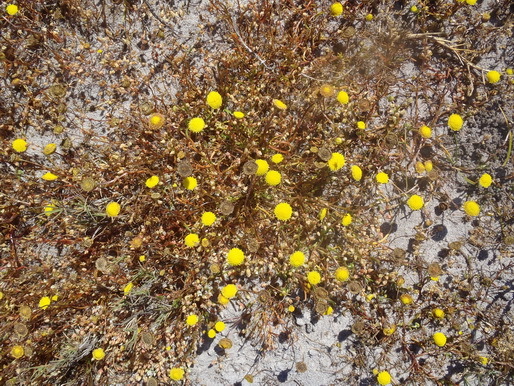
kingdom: Plantae
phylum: Tracheophyta
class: Magnoliopsida
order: Asterales
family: Asteraceae
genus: Cotula
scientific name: Cotula coronopifolia
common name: Buttonweed
